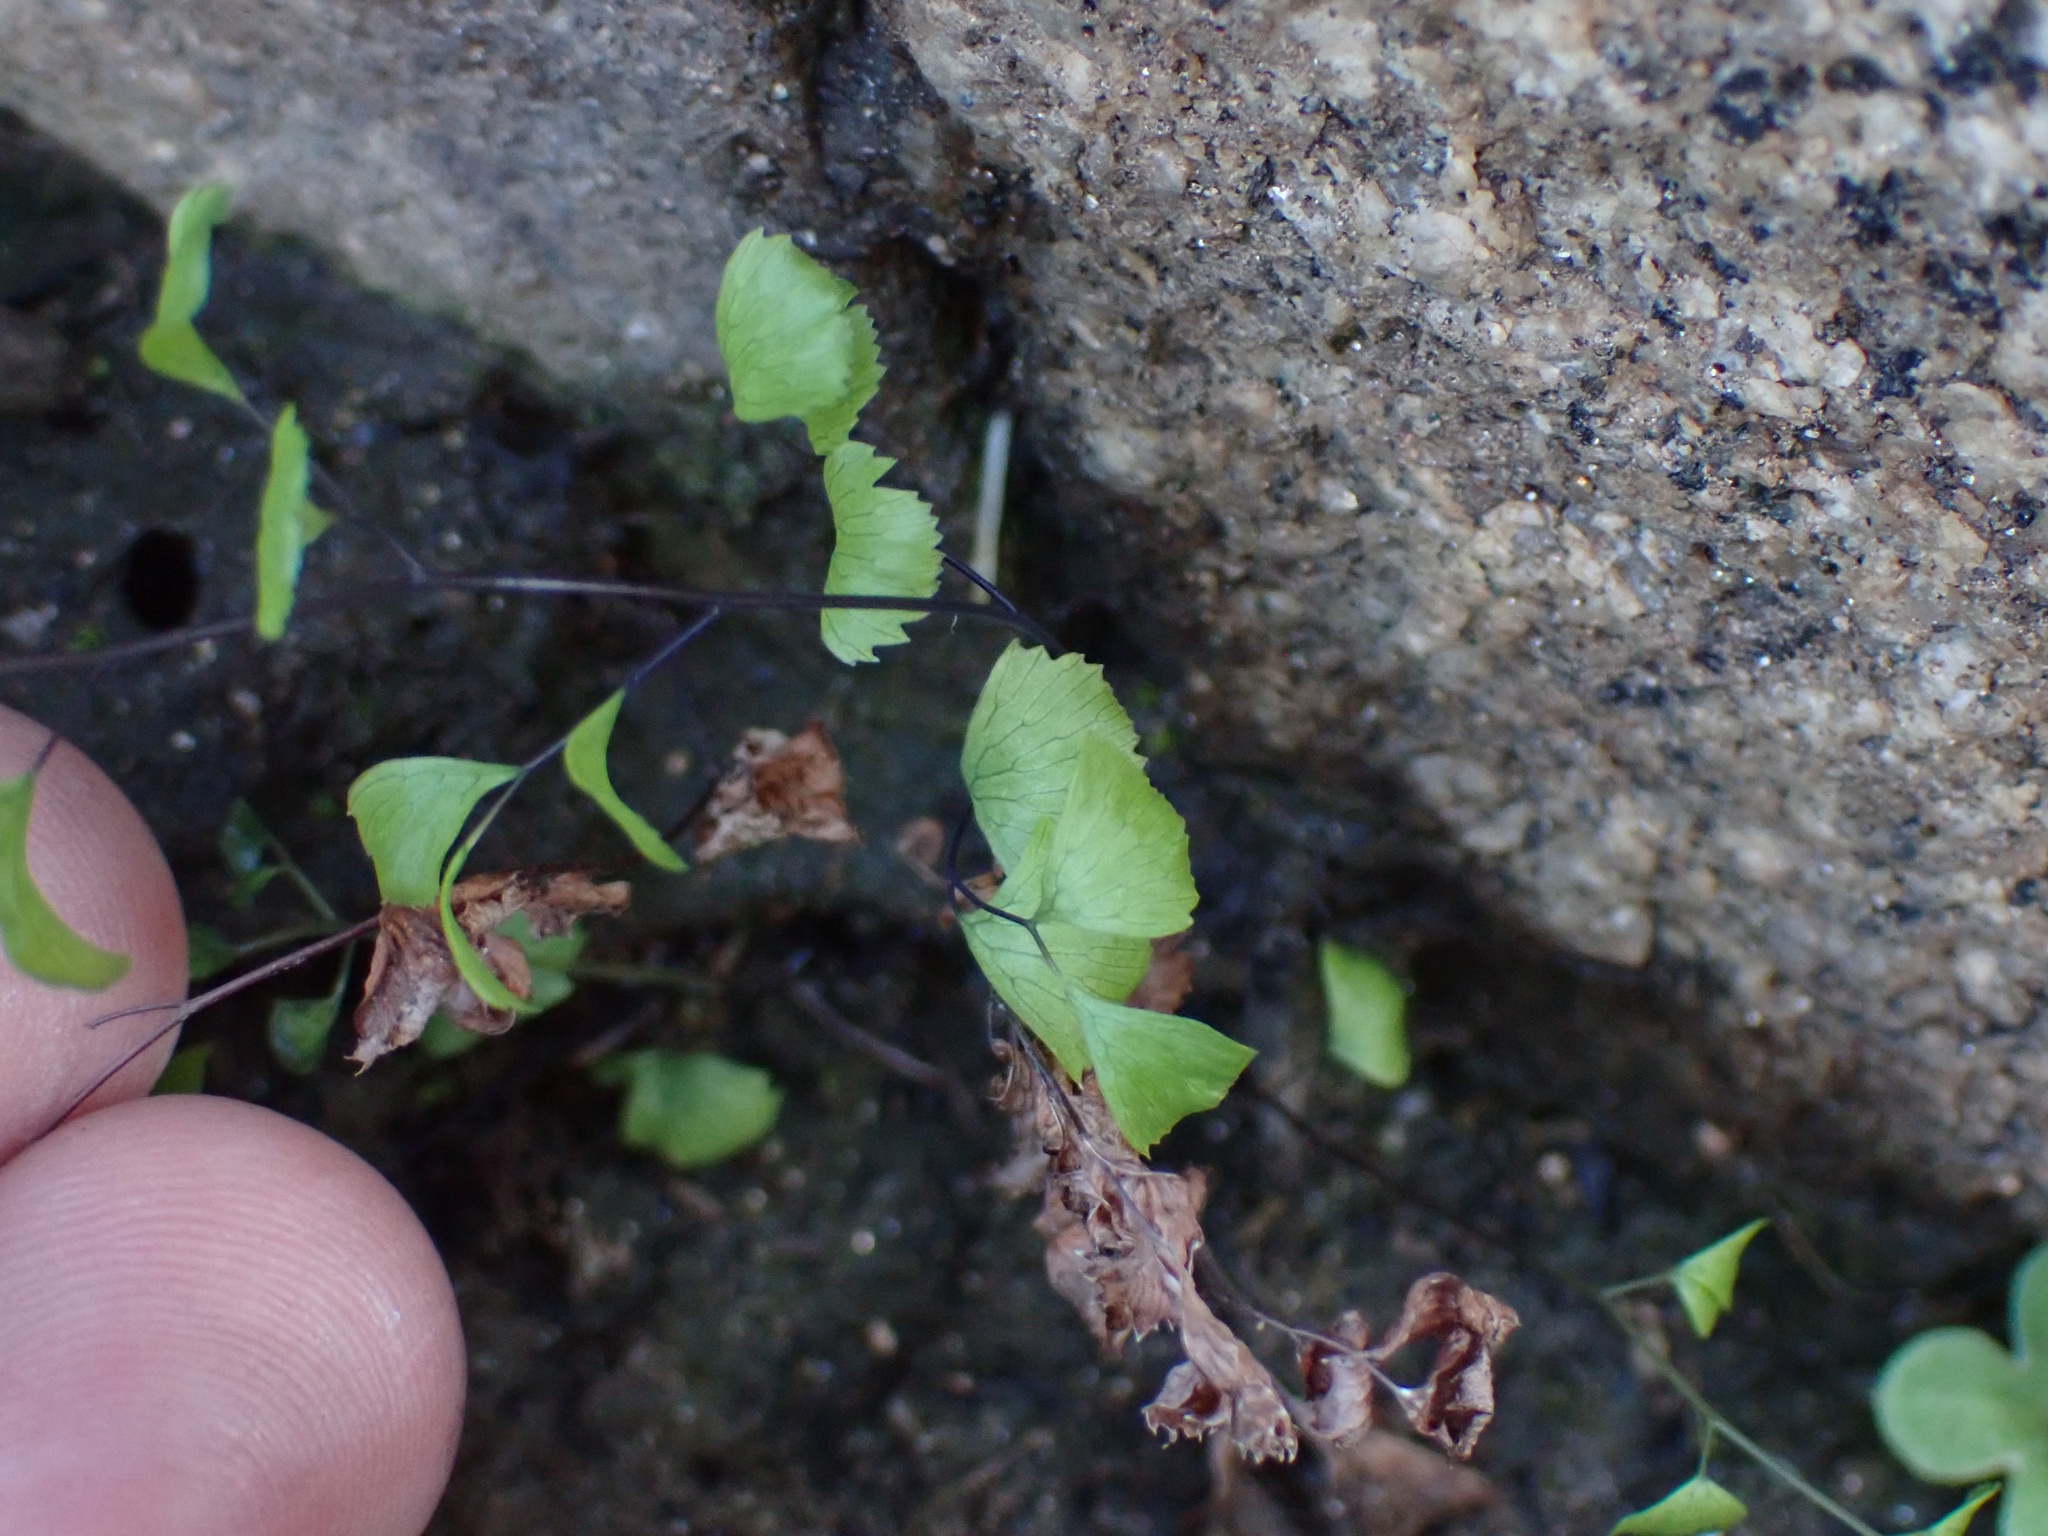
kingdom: Plantae
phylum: Tracheophyta
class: Polypodiopsida
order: Polypodiales
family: Pteridaceae
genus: Adiantum
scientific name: Adiantum jordanii
